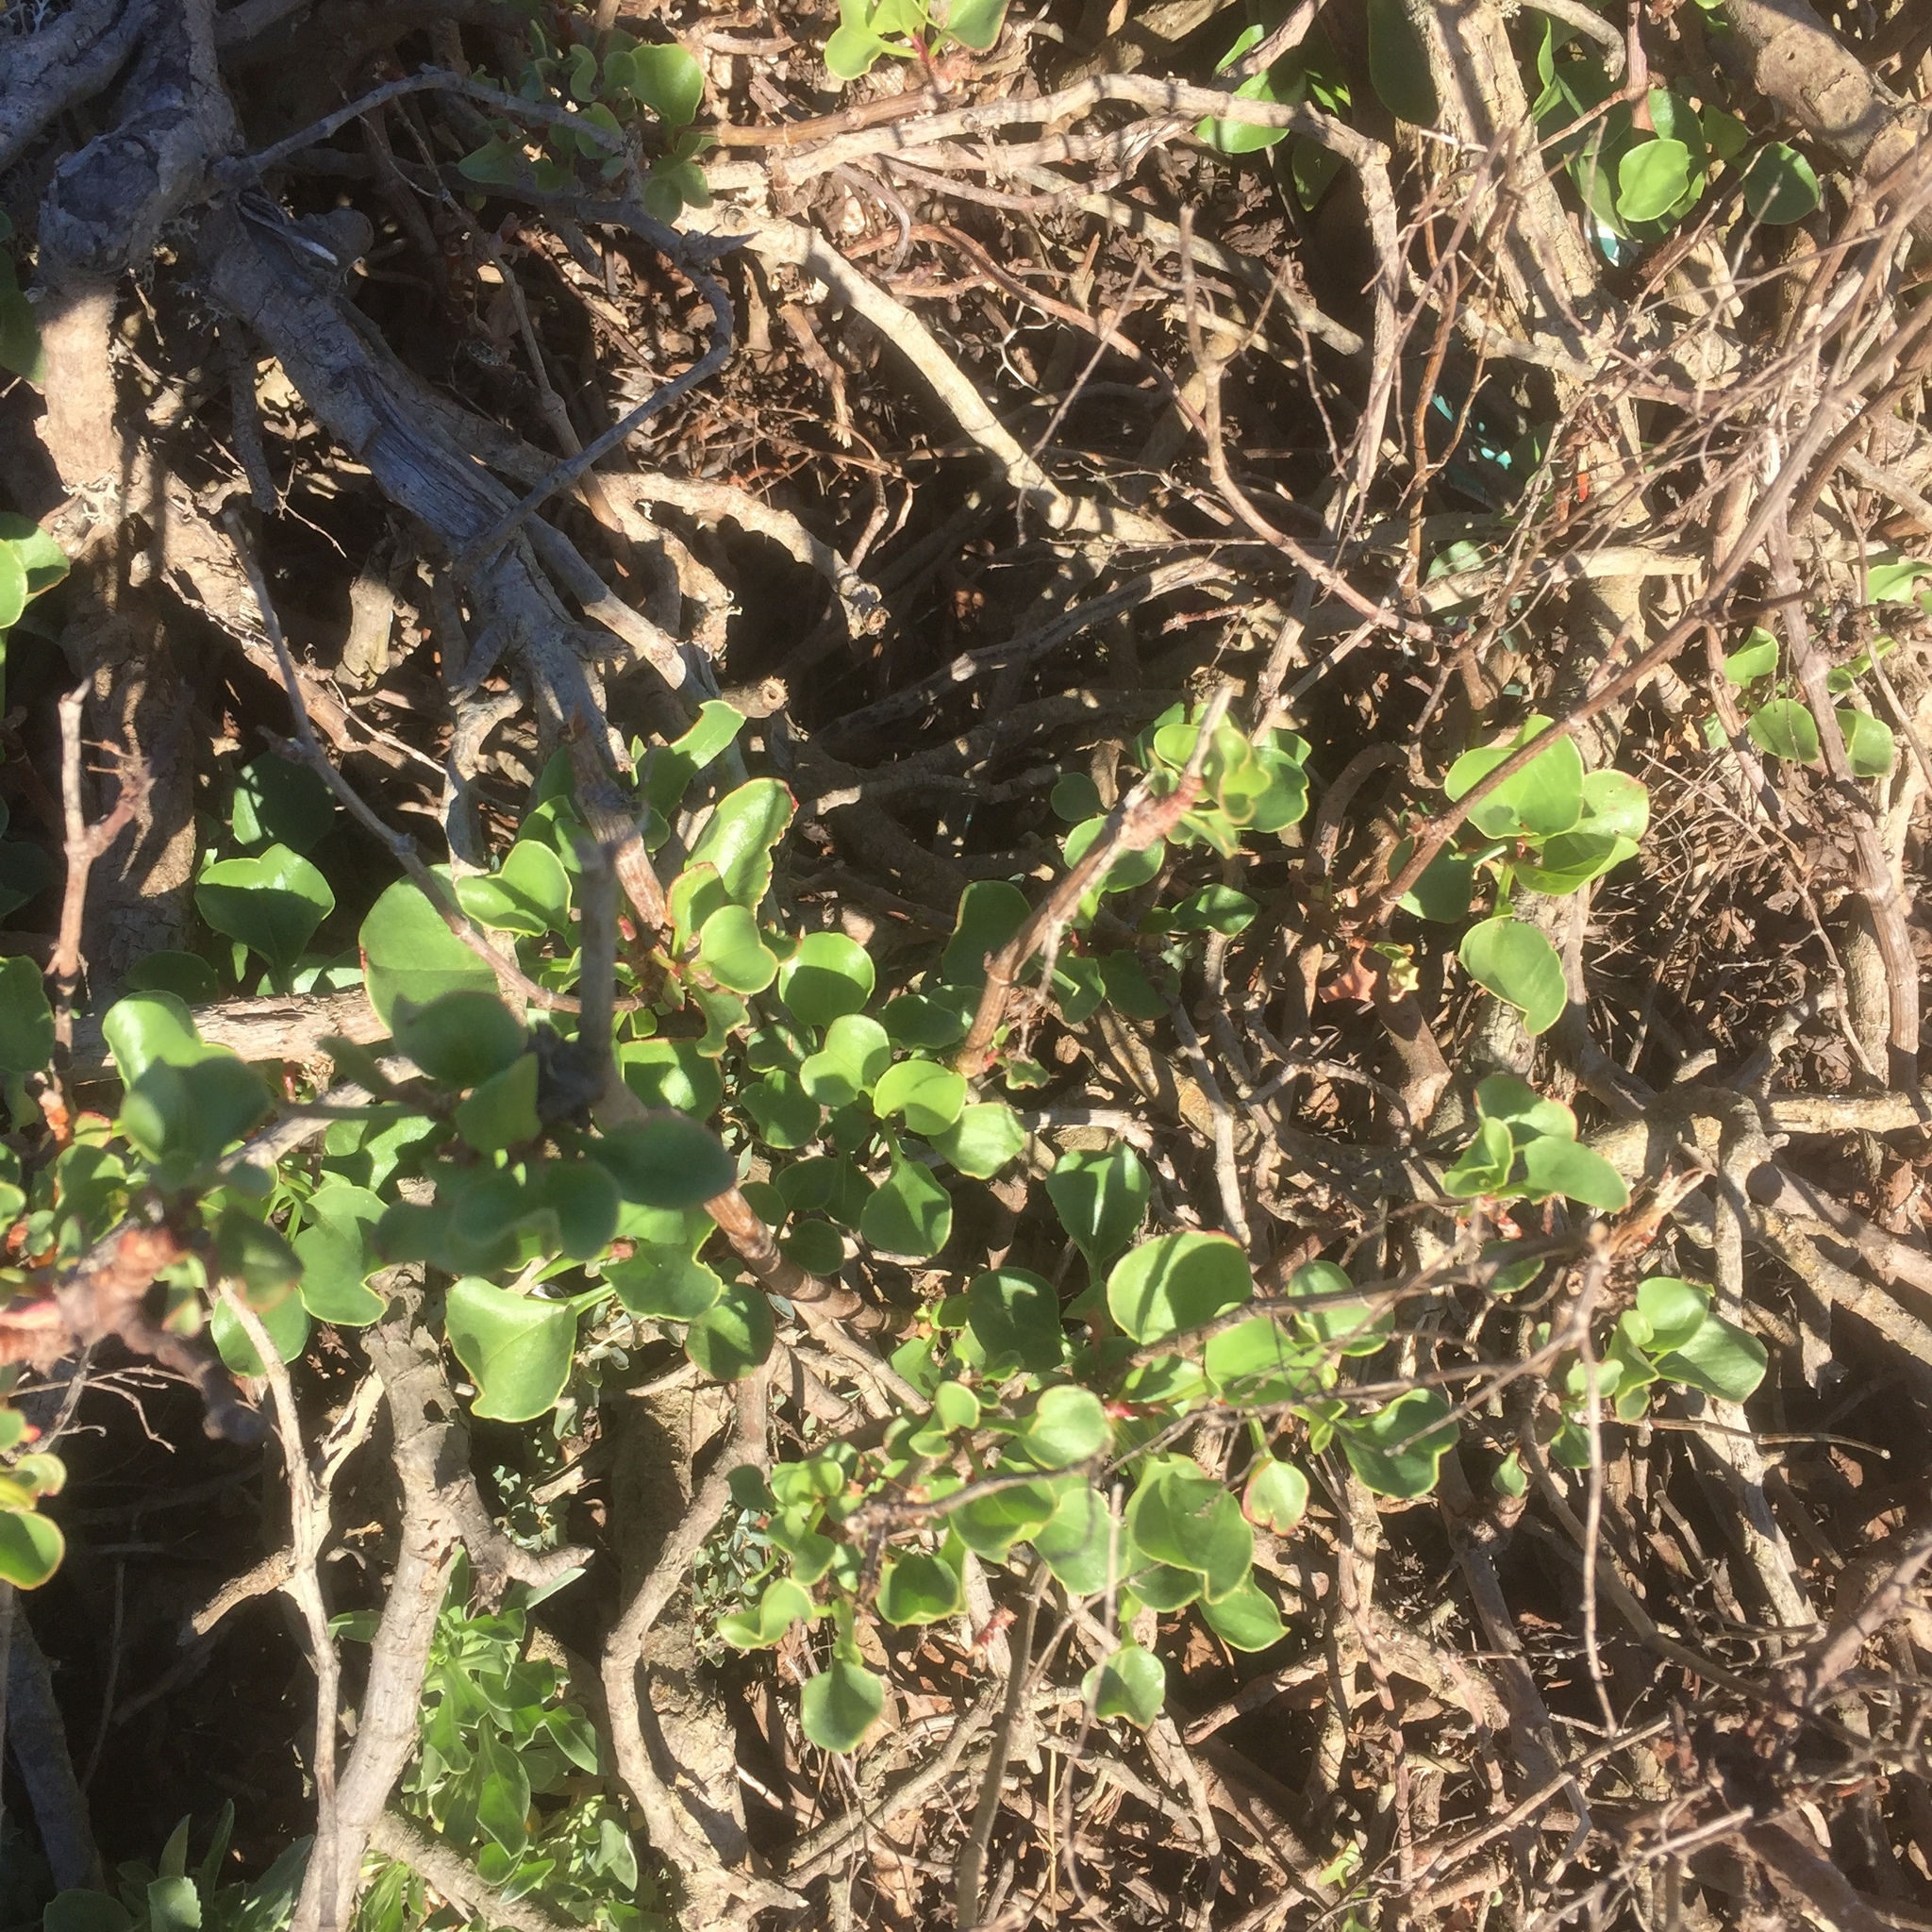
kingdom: Plantae
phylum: Tracheophyta
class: Magnoliopsida
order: Caryophyllales
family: Polygonaceae
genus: Rumex
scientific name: Rumex lunaria
